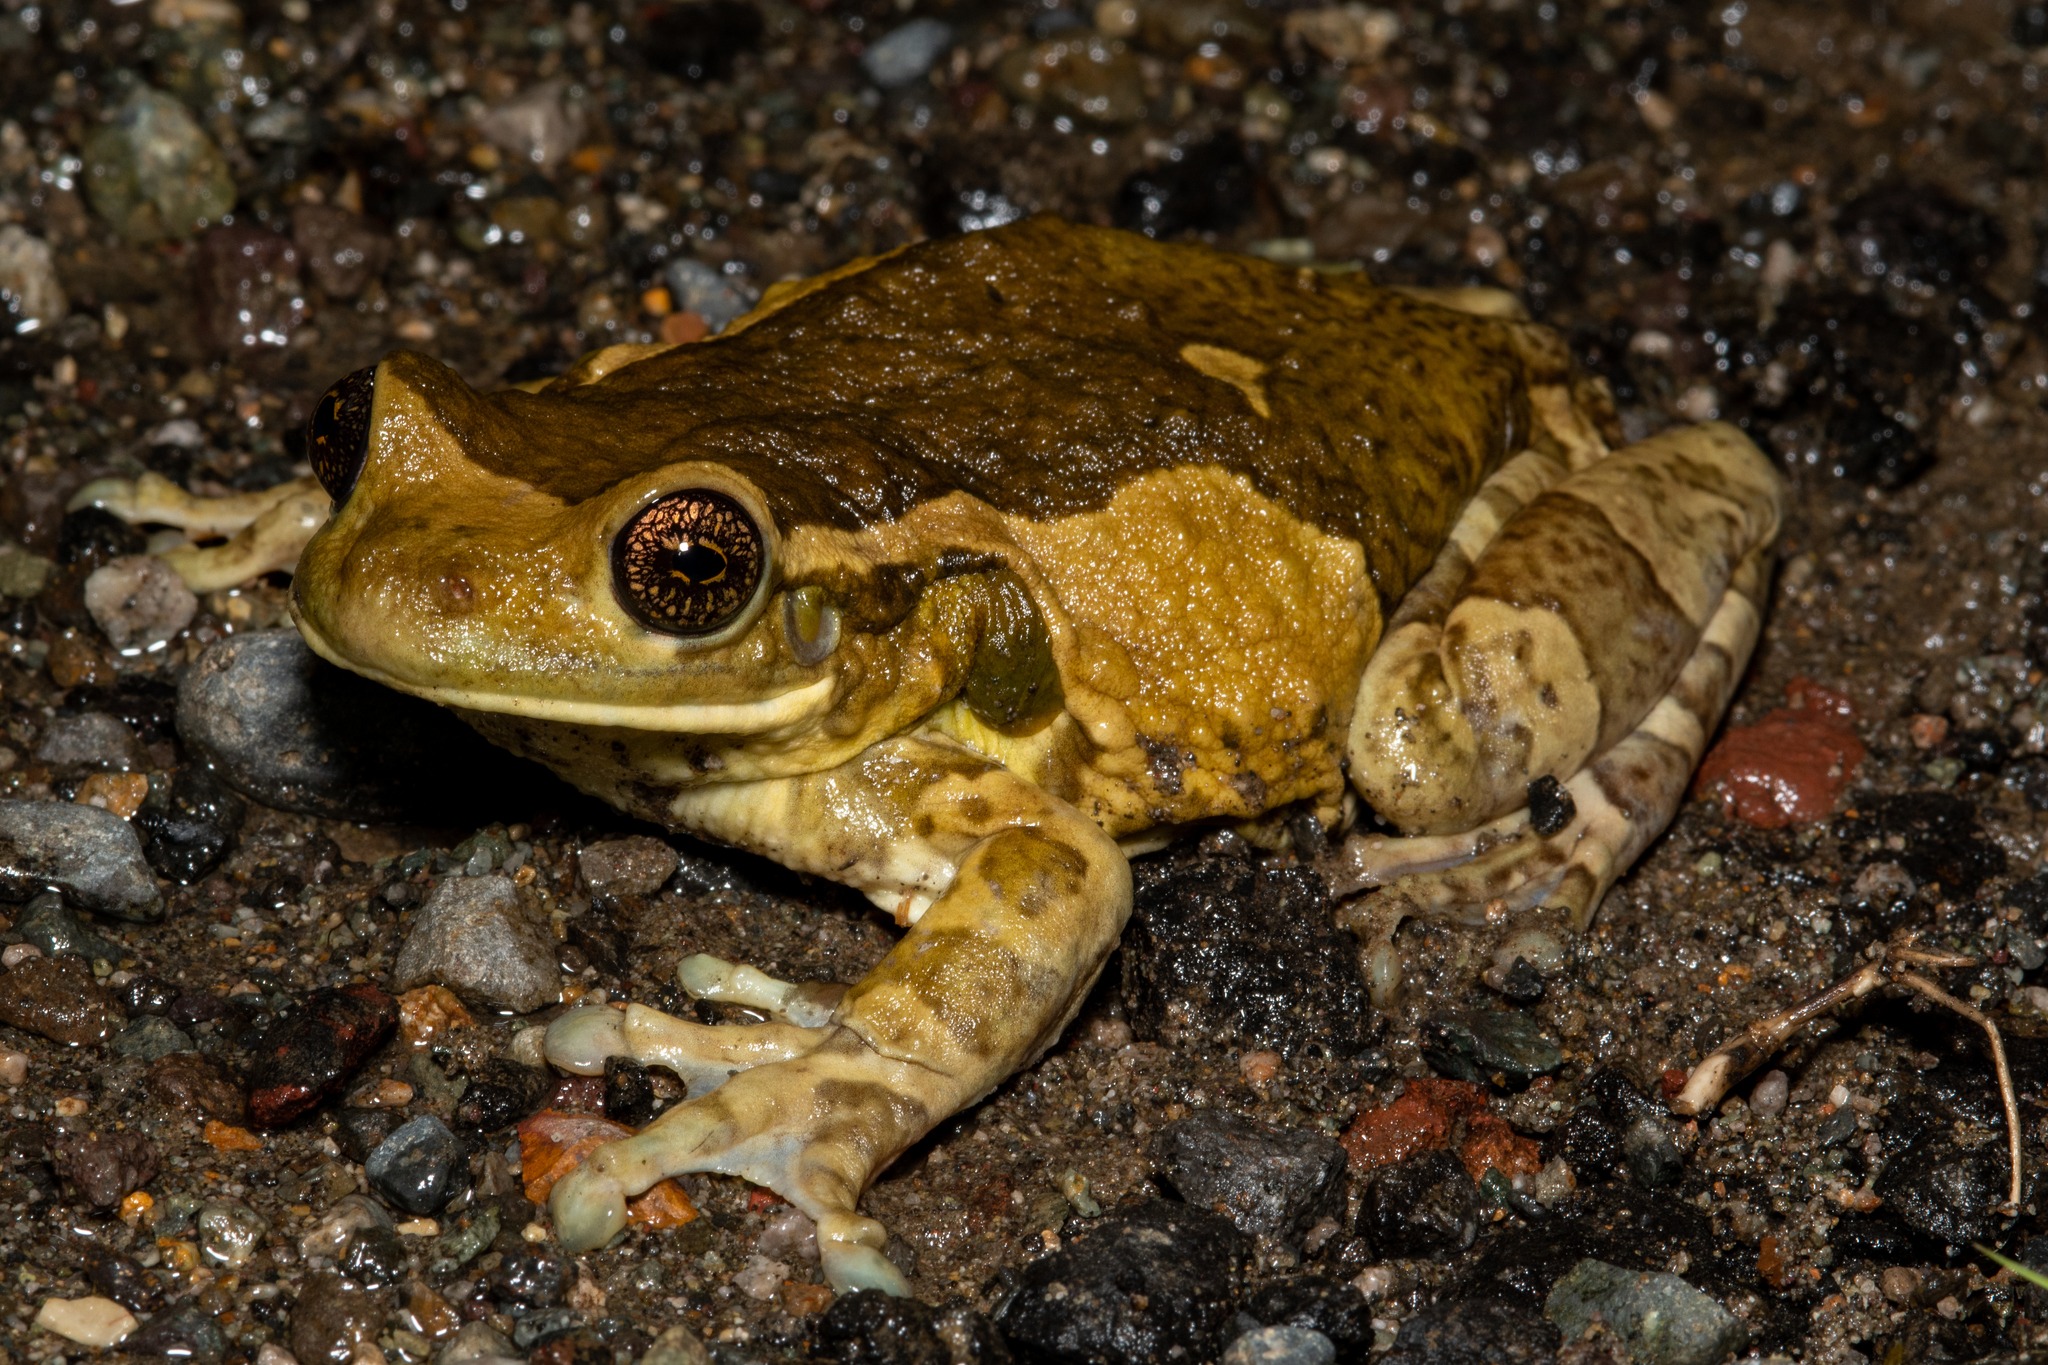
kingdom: Animalia
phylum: Chordata
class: Amphibia
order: Anura
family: Hylidae
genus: Trachycephalus
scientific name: Trachycephalus vermiculatus
